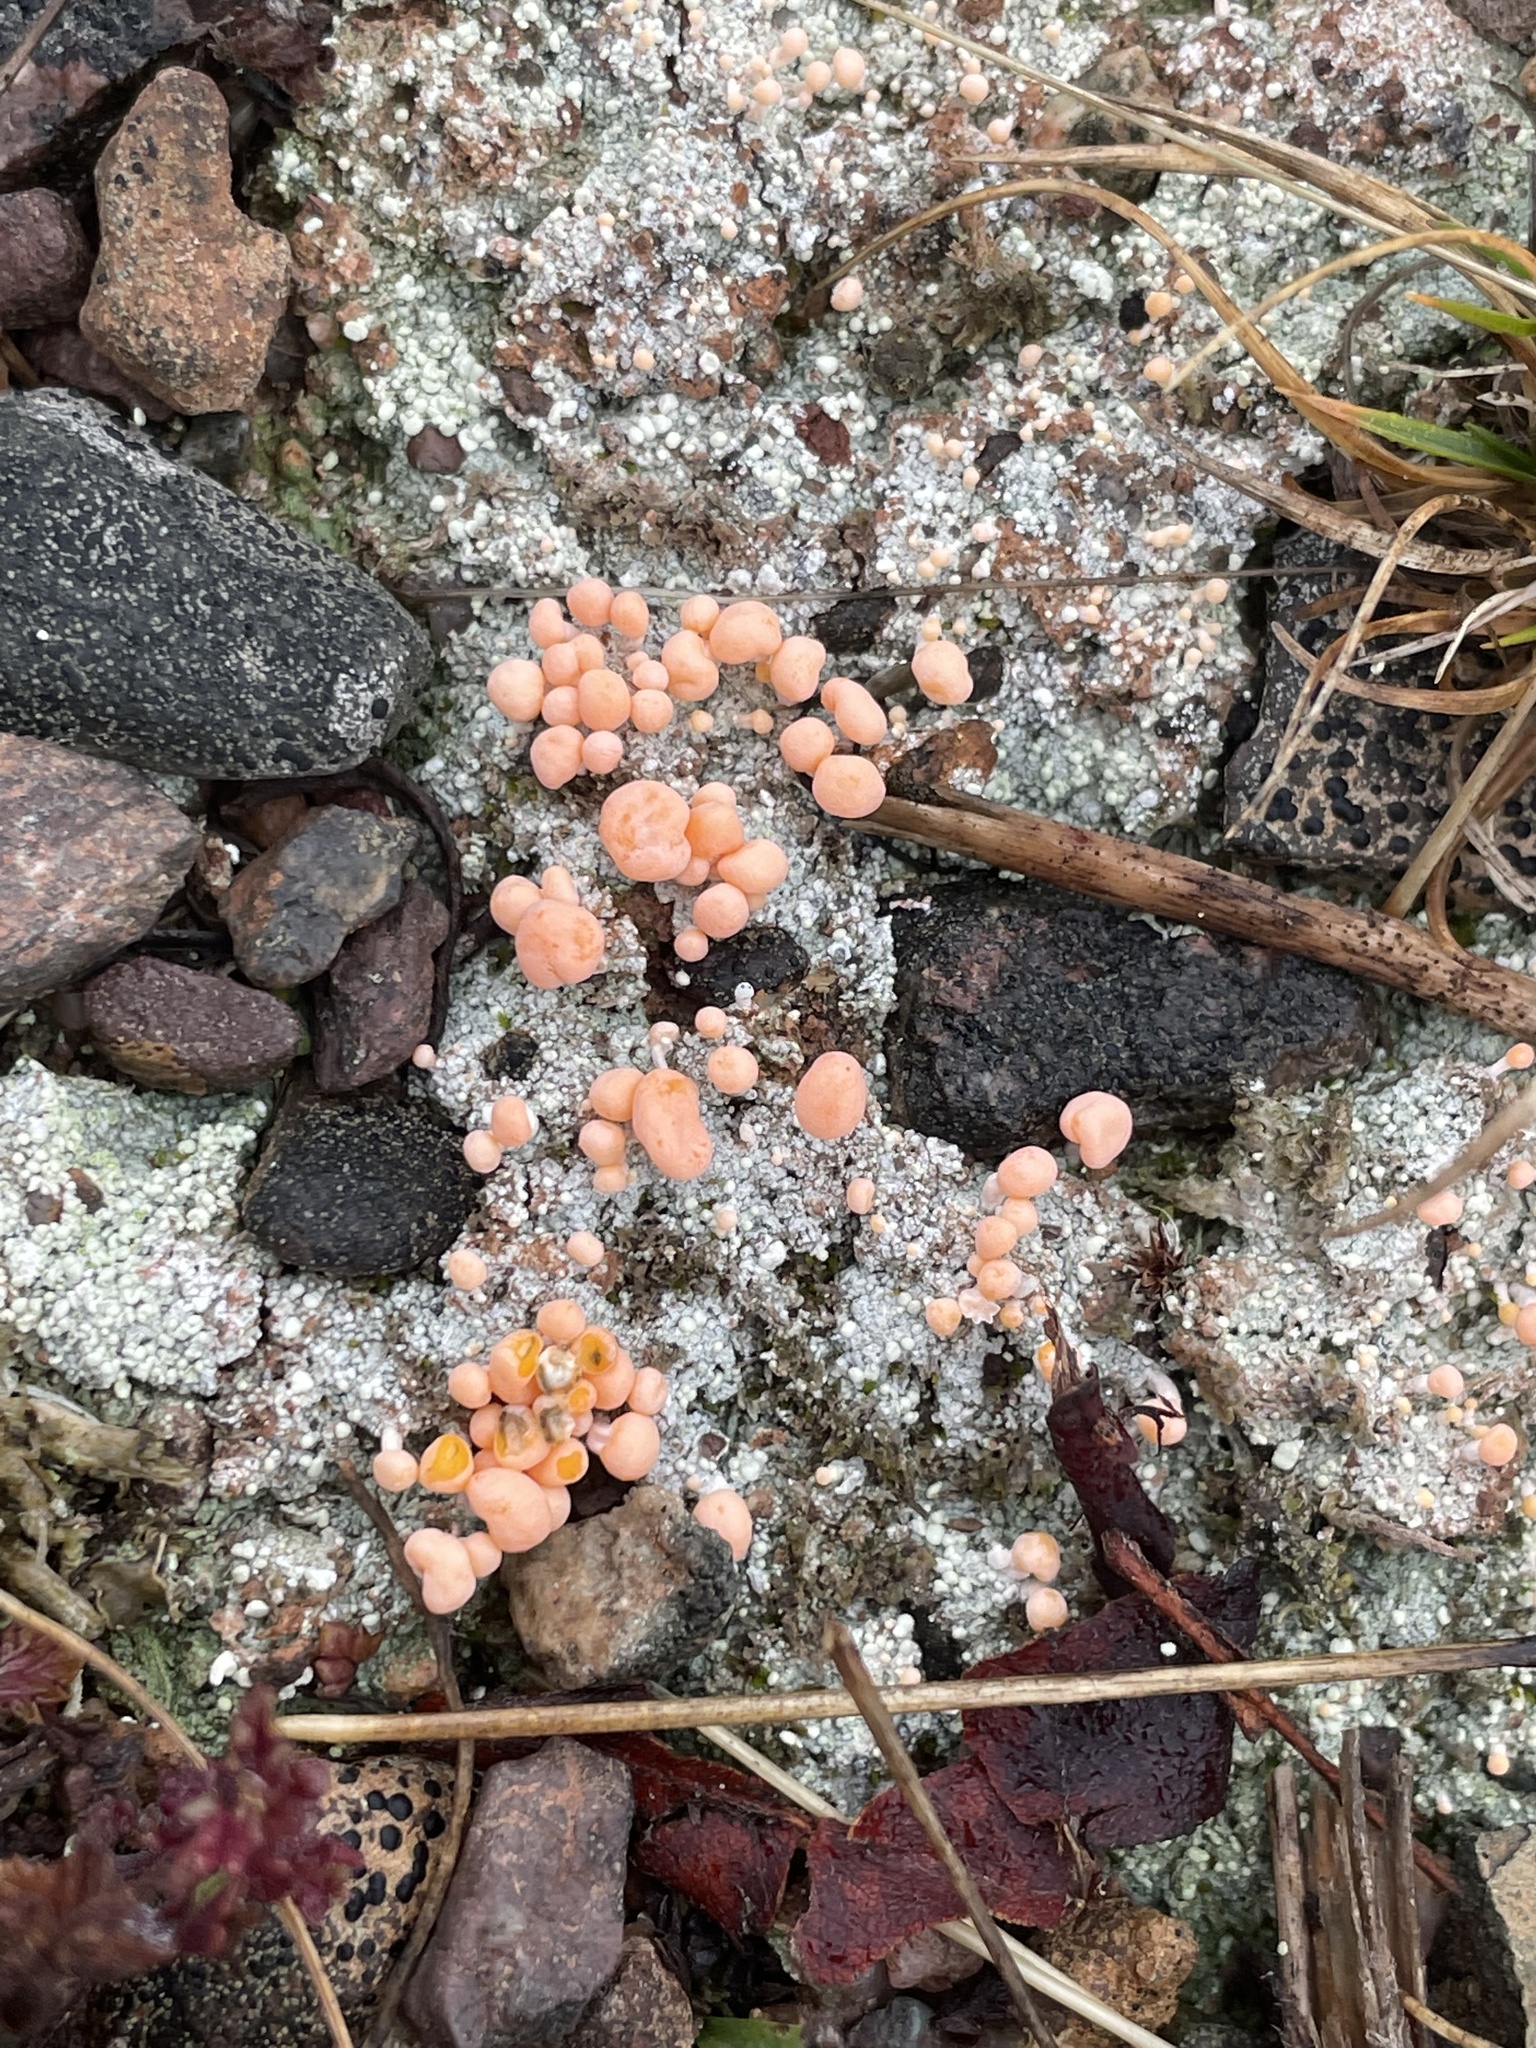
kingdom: Fungi
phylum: Ascomycota
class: Lecanoromycetes
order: Pertusariales
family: Icmadophilaceae
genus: Dibaeis
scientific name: Dibaeis baeomyces
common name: Pink earth lichen
